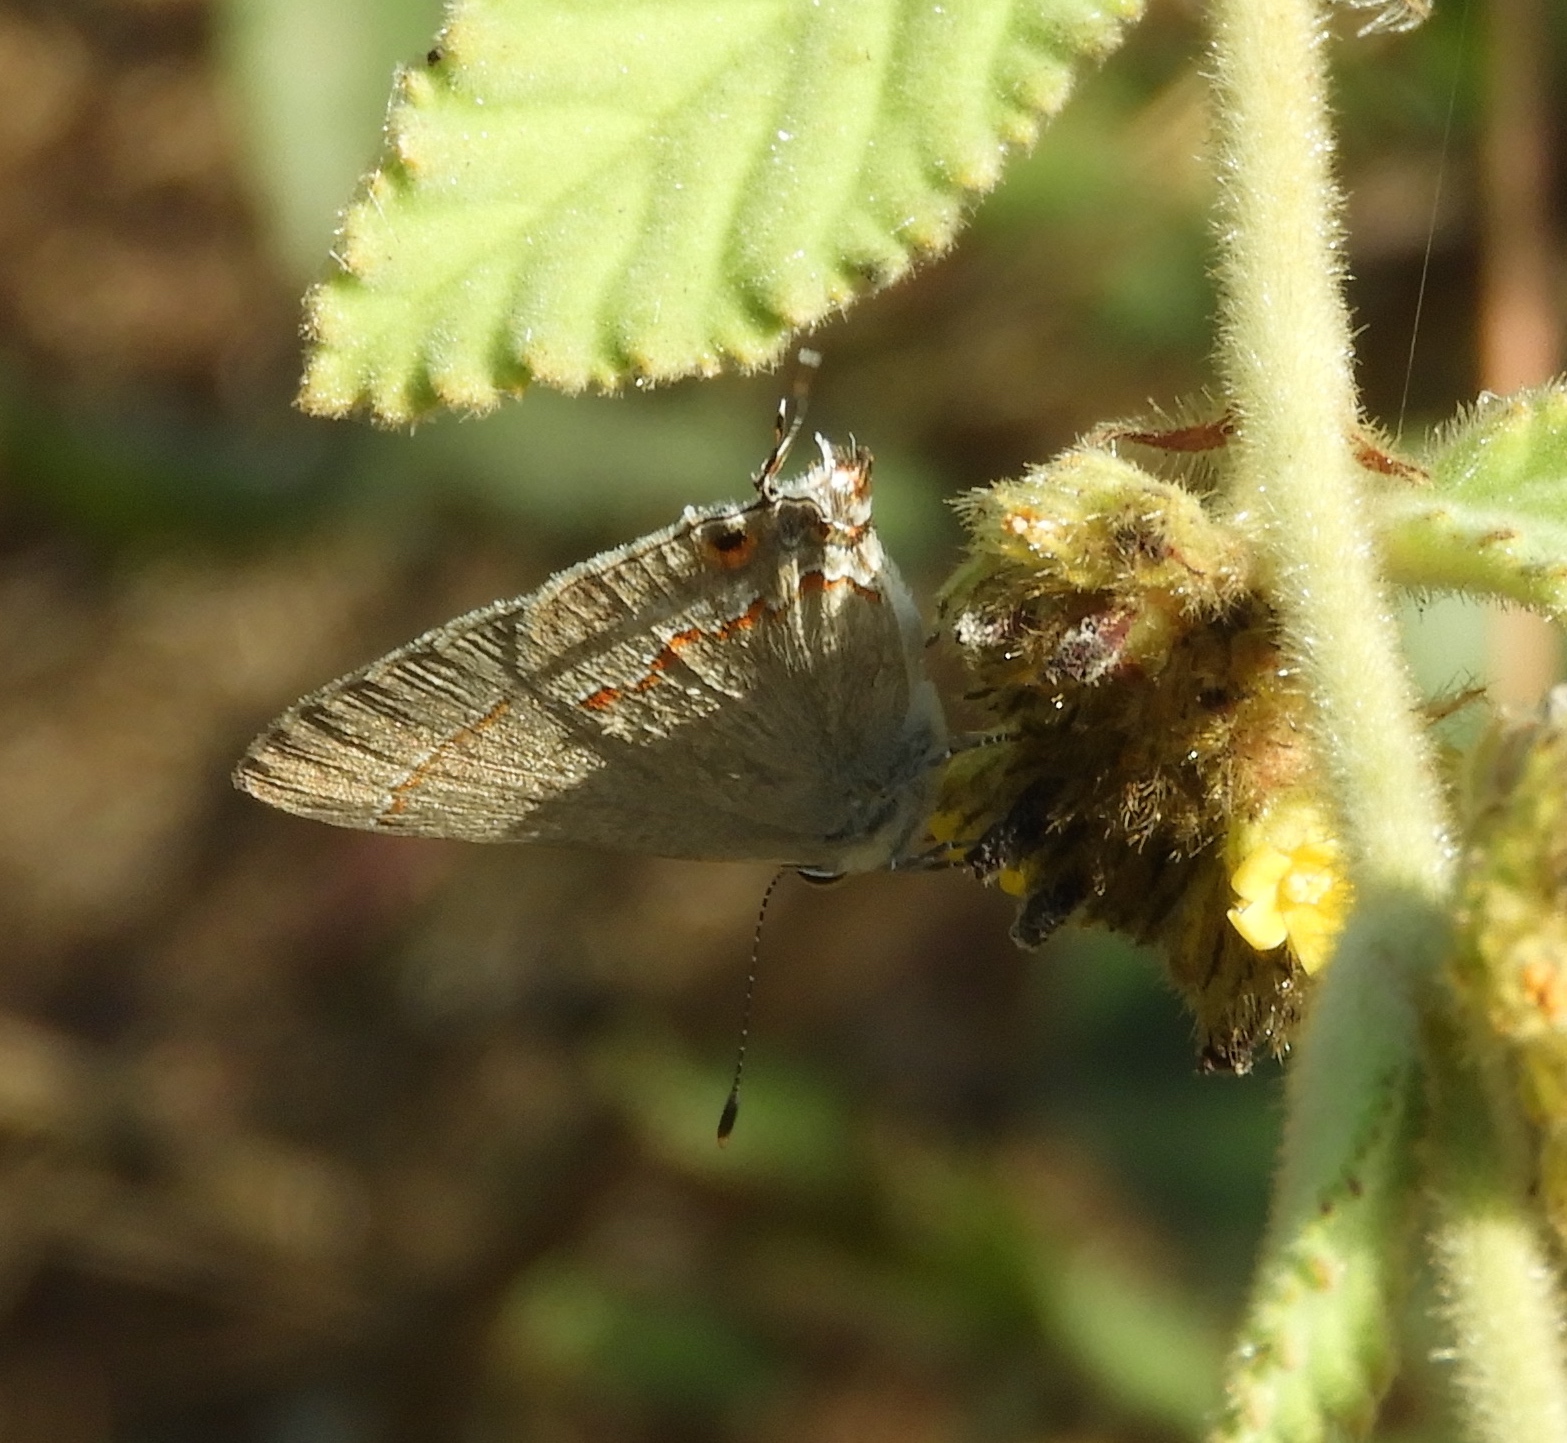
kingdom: Animalia
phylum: Arthropoda
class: Insecta
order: Lepidoptera
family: Lycaenidae
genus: Thecla
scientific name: Thecla bebrycia
